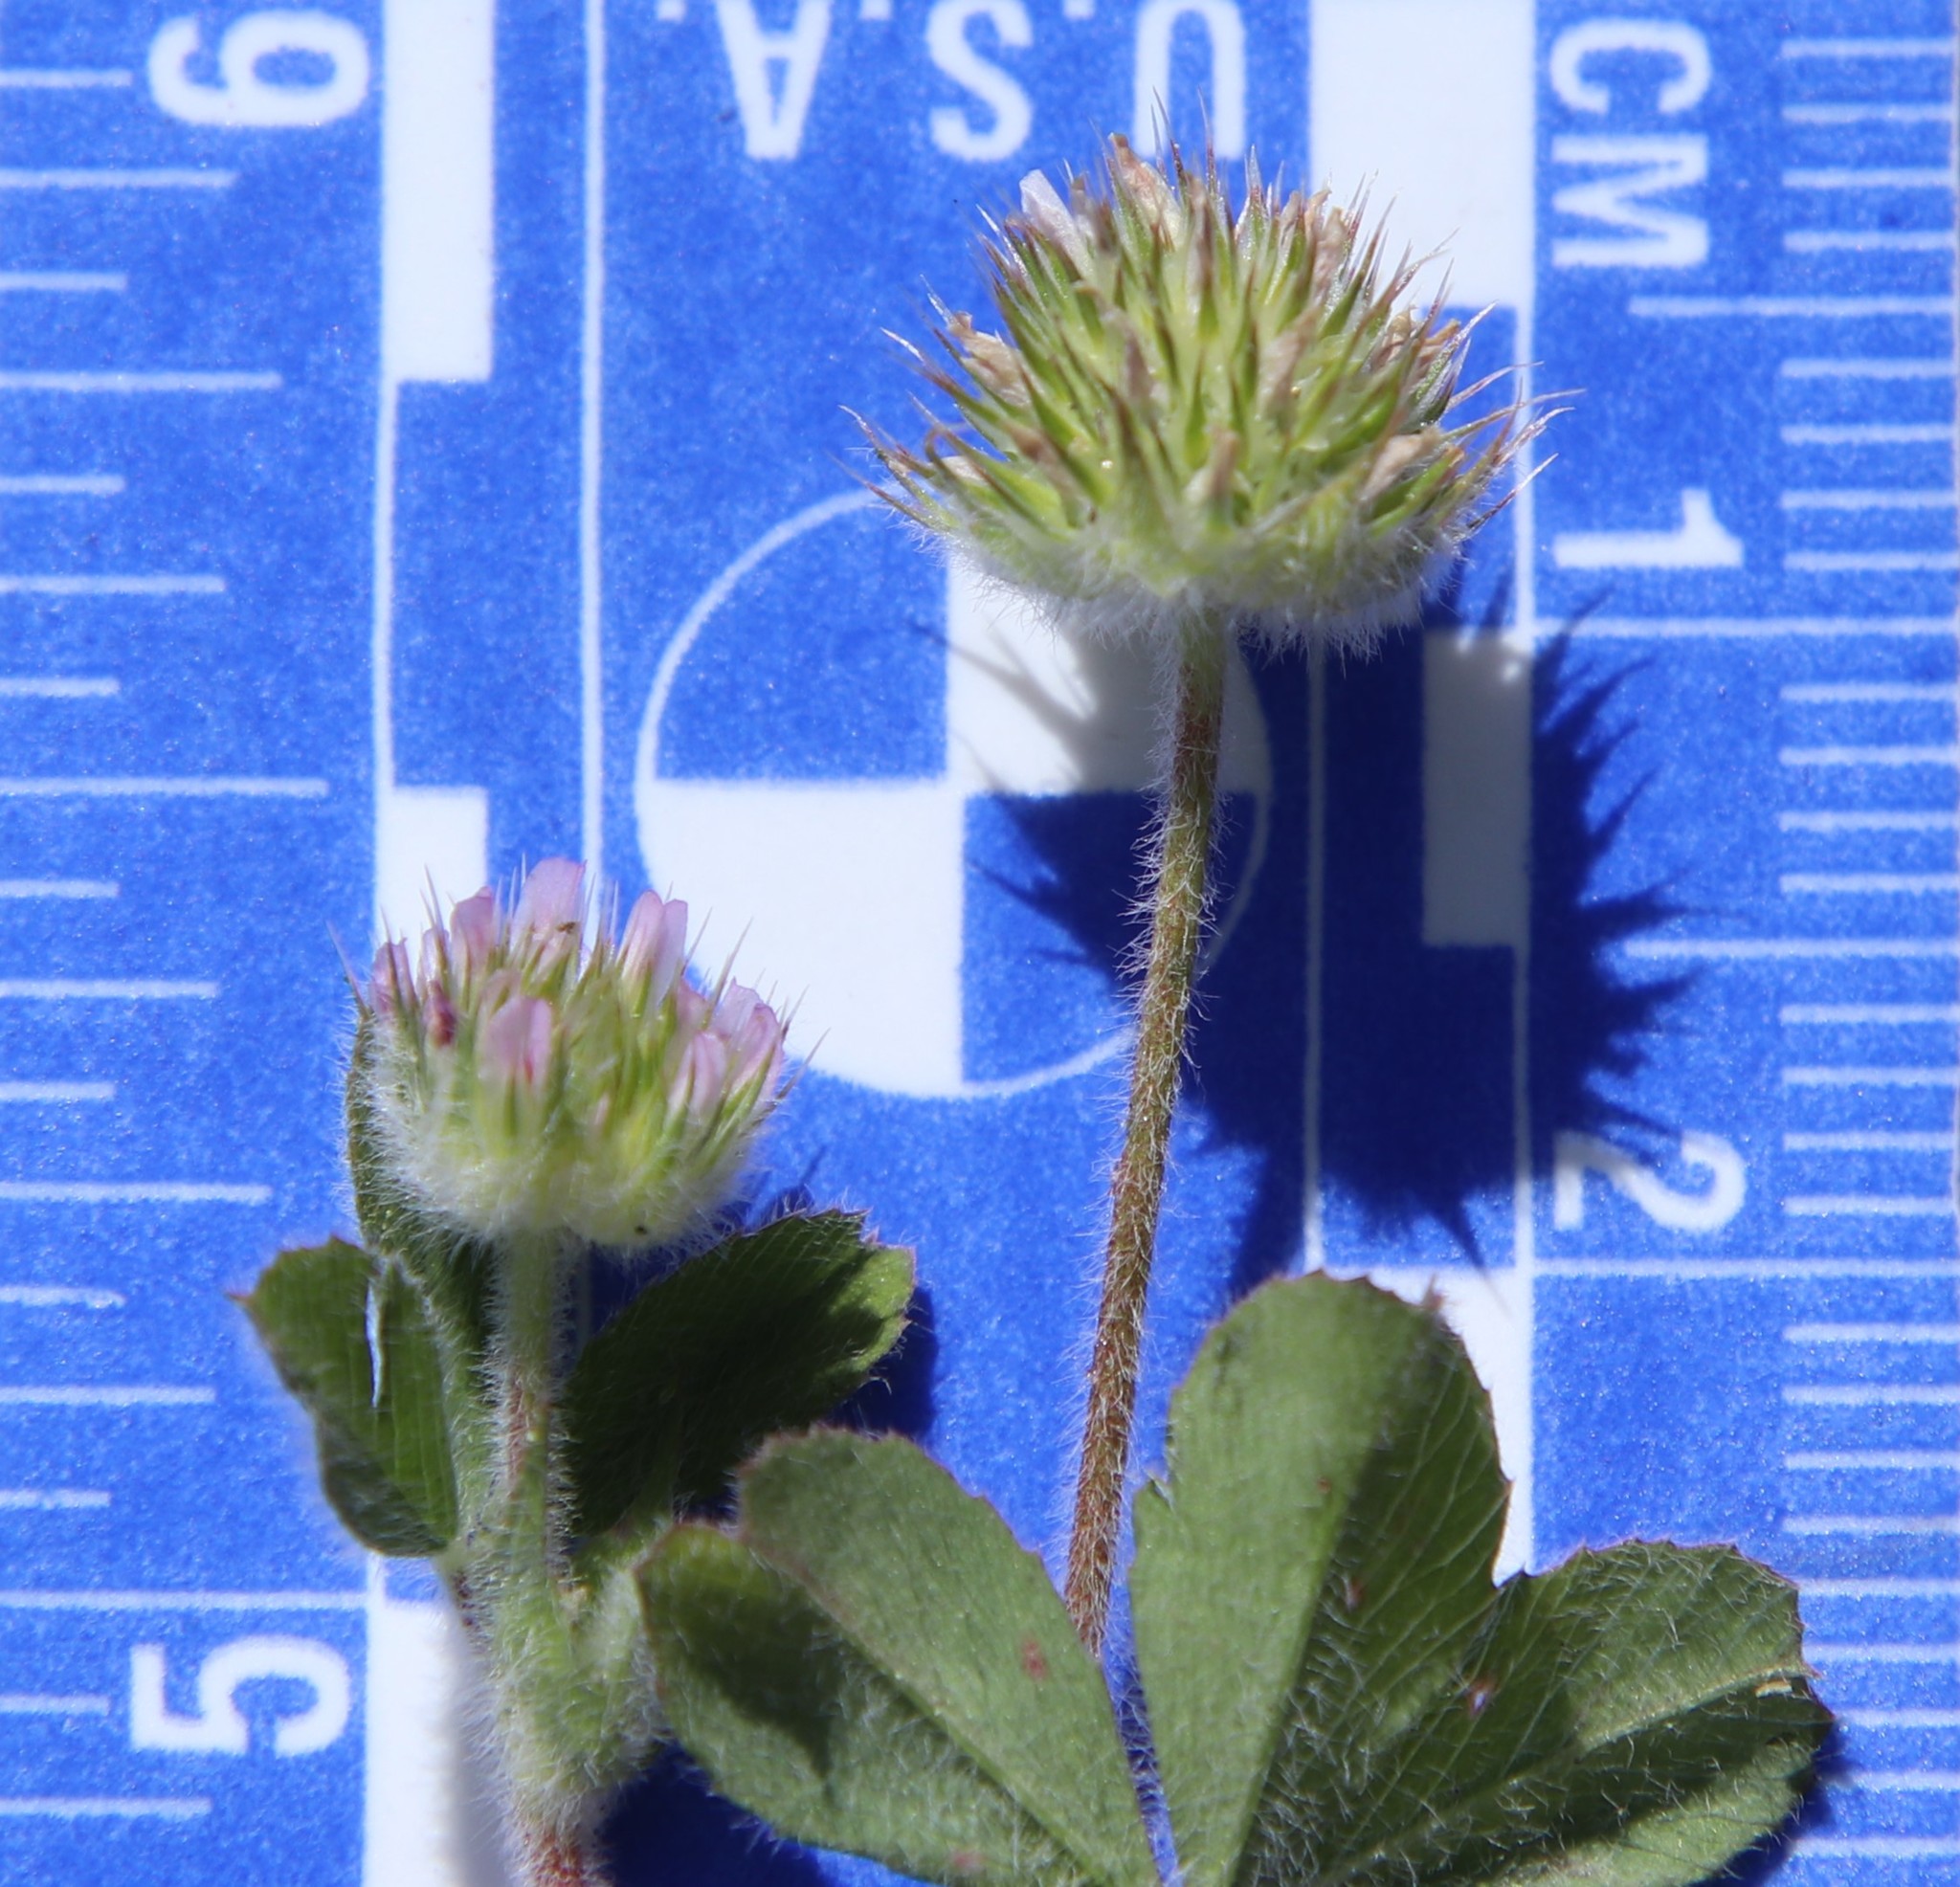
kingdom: Plantae
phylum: Tracheophyta
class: Magnoliopsida
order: Fabales
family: Fabaceae
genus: Trifolium
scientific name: Trifolium microcephalum
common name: Maiden clover
